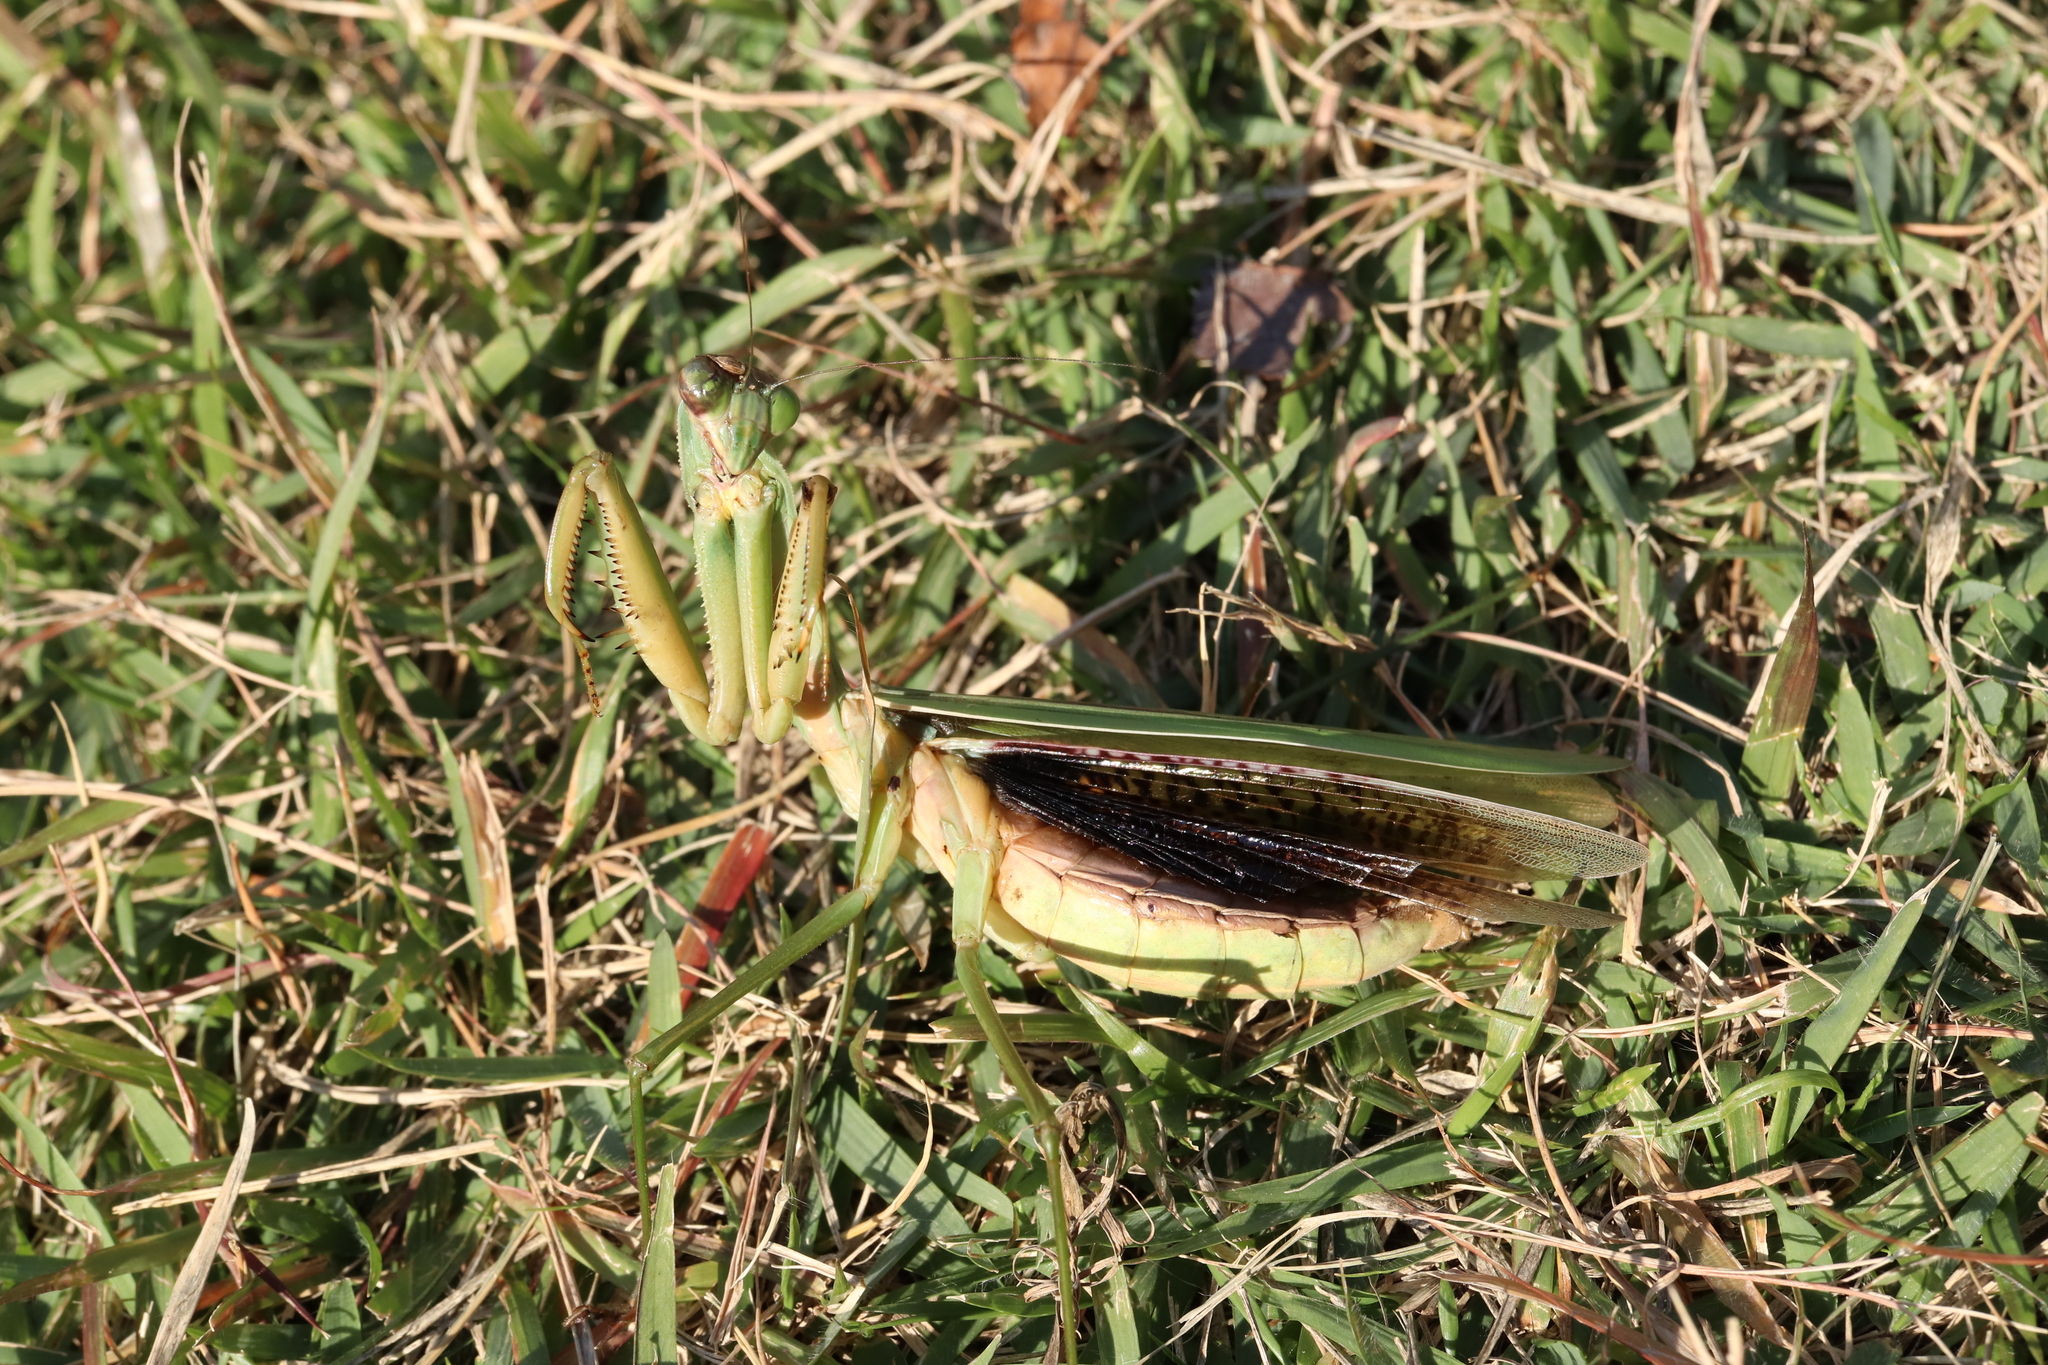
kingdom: Animalia
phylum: Arthropoda
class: Insecta
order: Mantodea
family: Mantidae
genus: Tenodera
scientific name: Tenodera sinensis
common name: Chinese mantis
